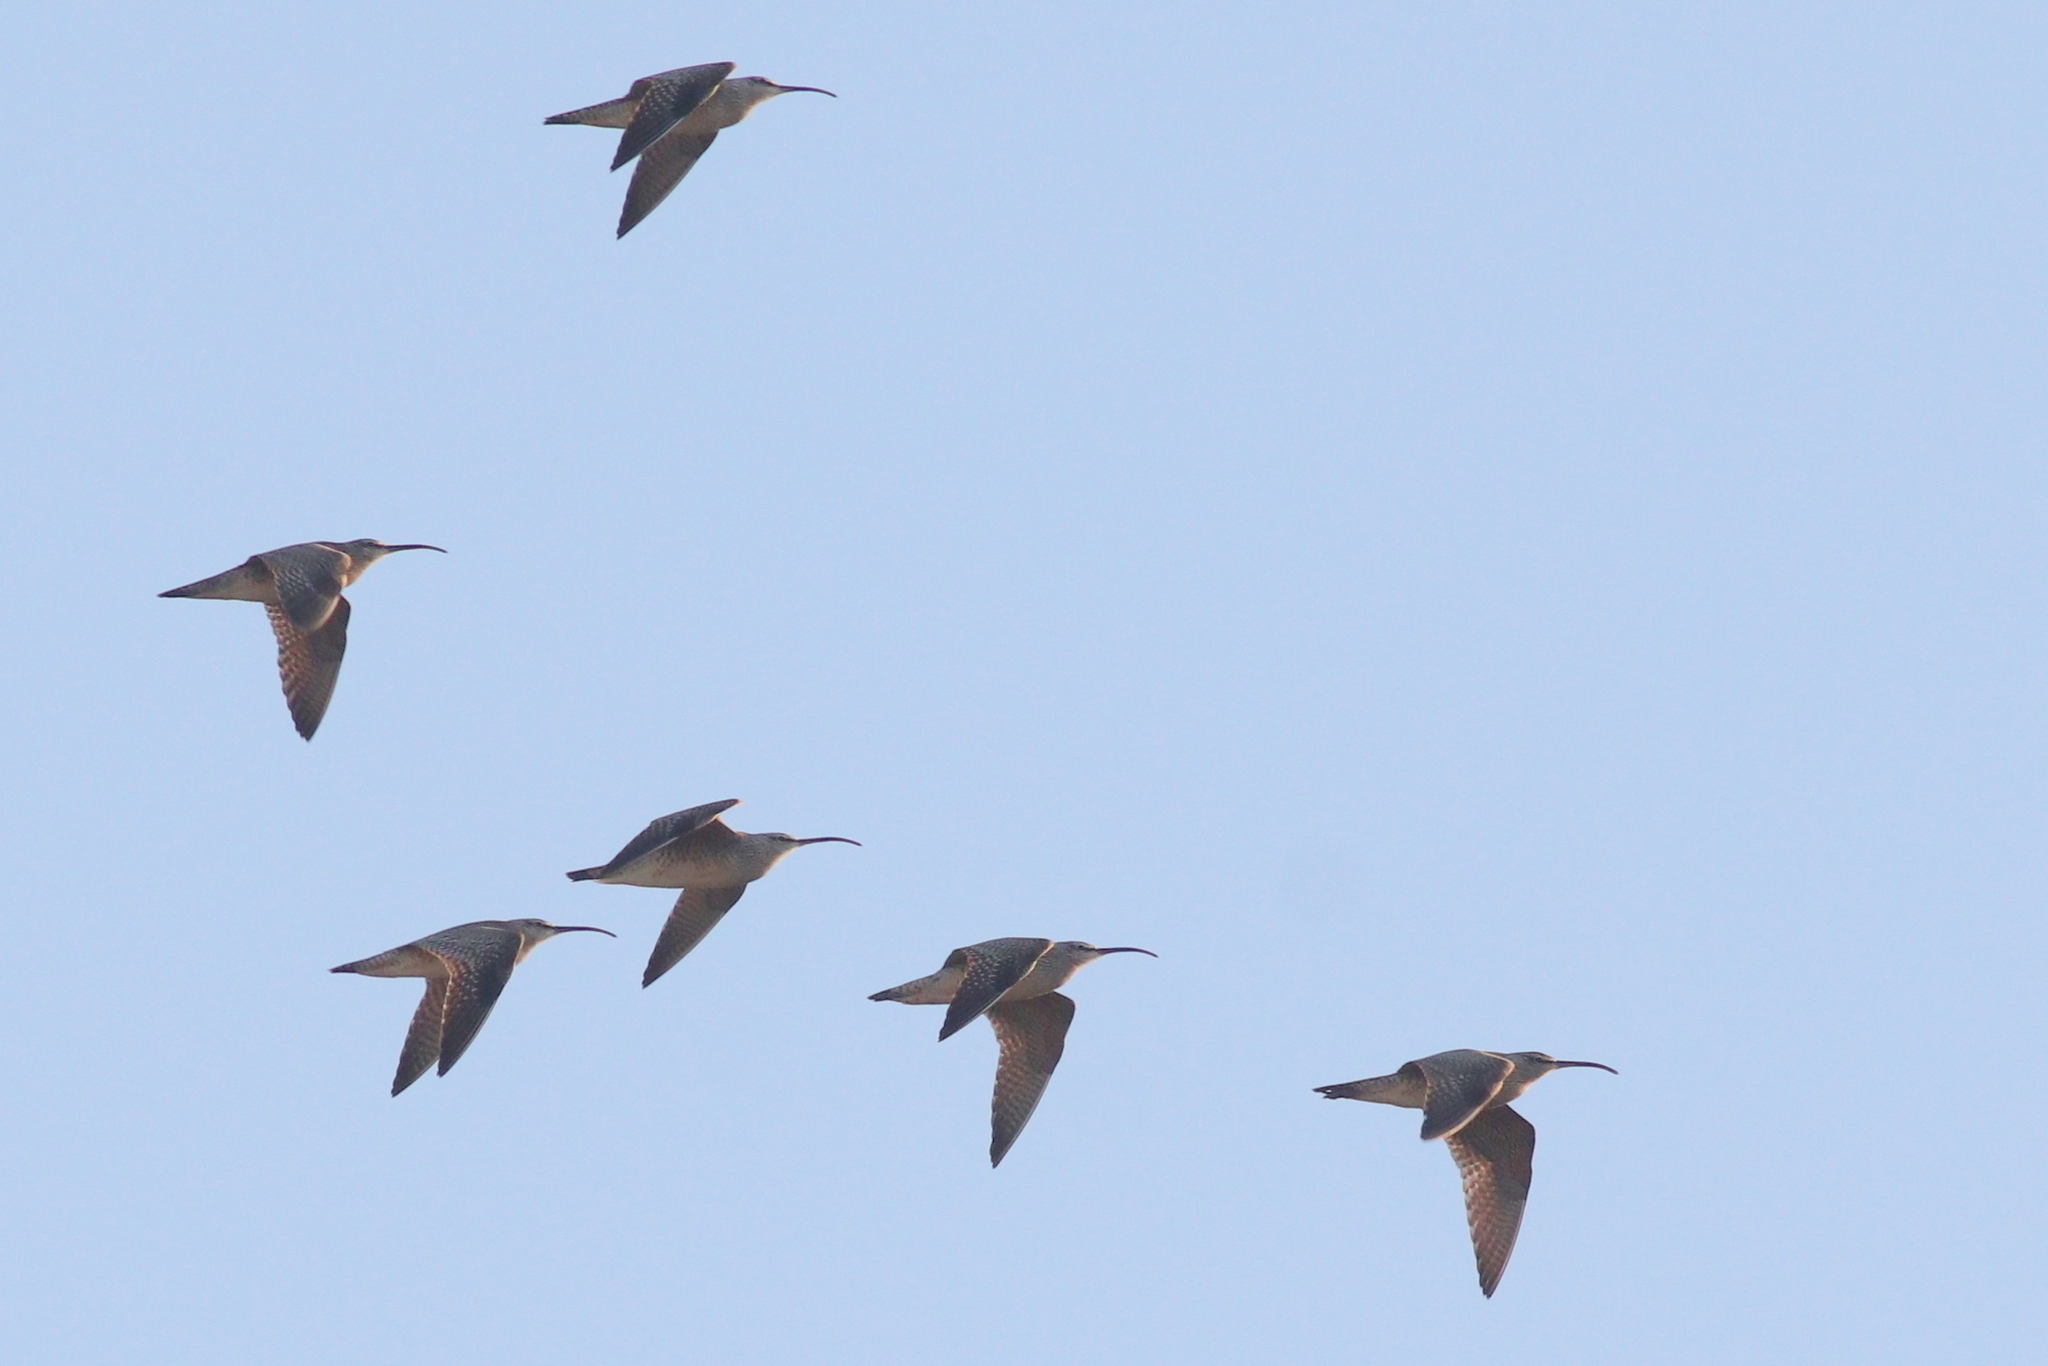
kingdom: Animalia
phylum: Chordata
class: Aves
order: Charadriiformes
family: Scolopacidae
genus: Numenius
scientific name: Numenius phaeopus
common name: Whimbrel
